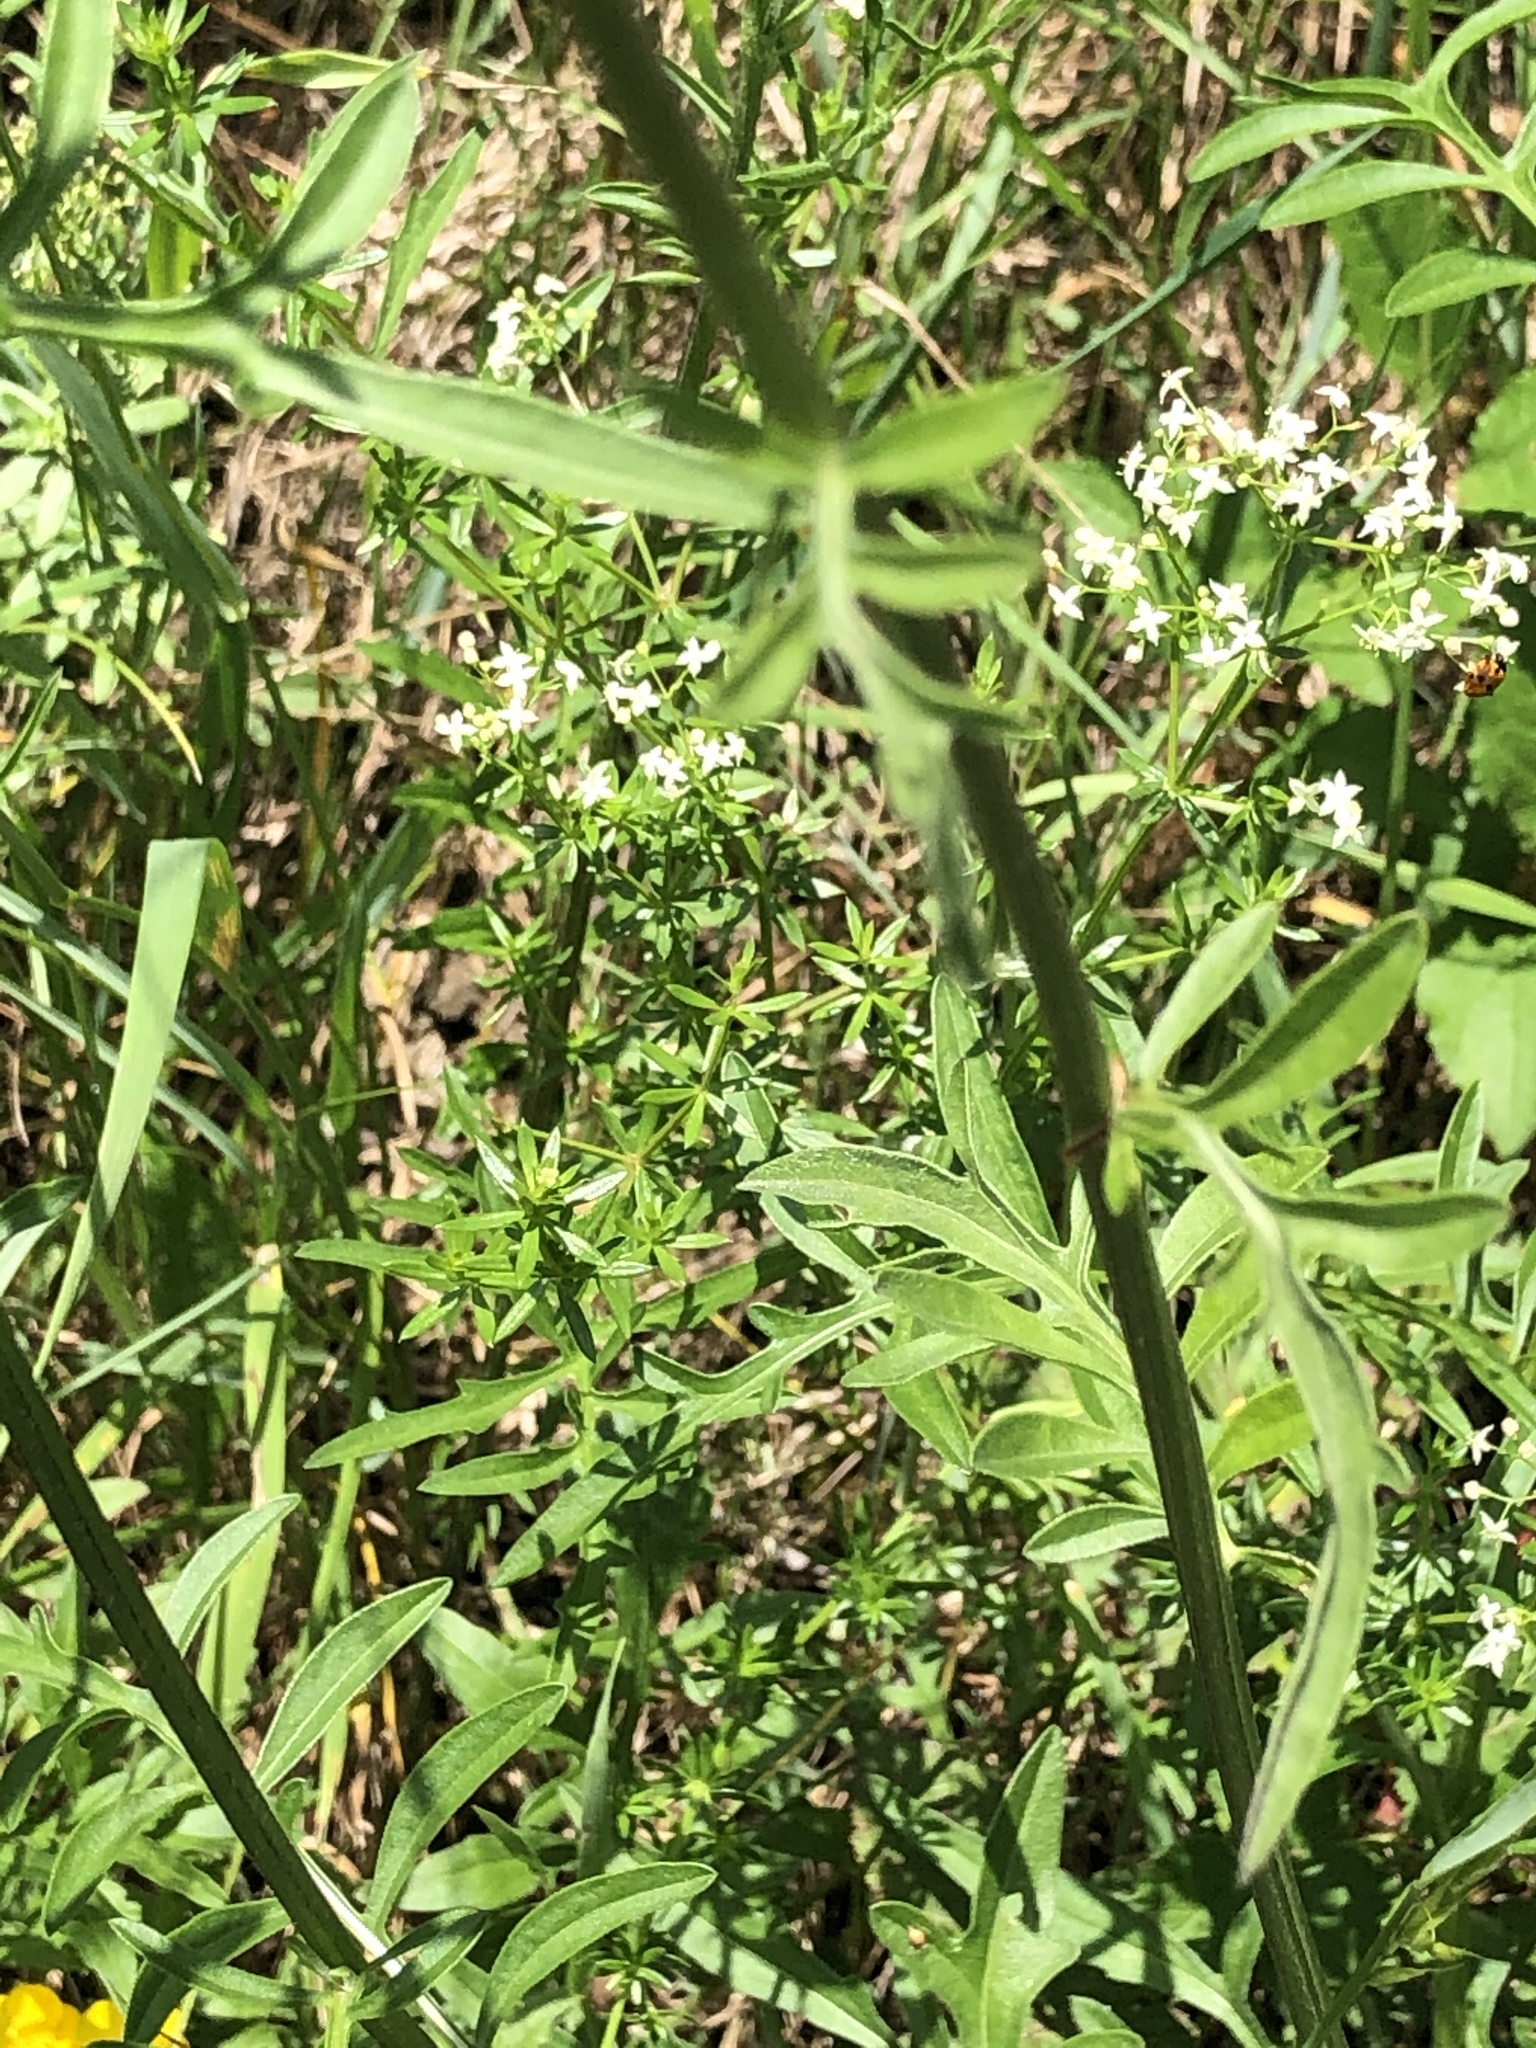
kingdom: Plantae
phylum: Tracheophyta
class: Magnoliopsida
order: Asterales
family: Asteraceae
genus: Centaurea
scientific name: Centaurea scabiosa
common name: Greater knapweed
